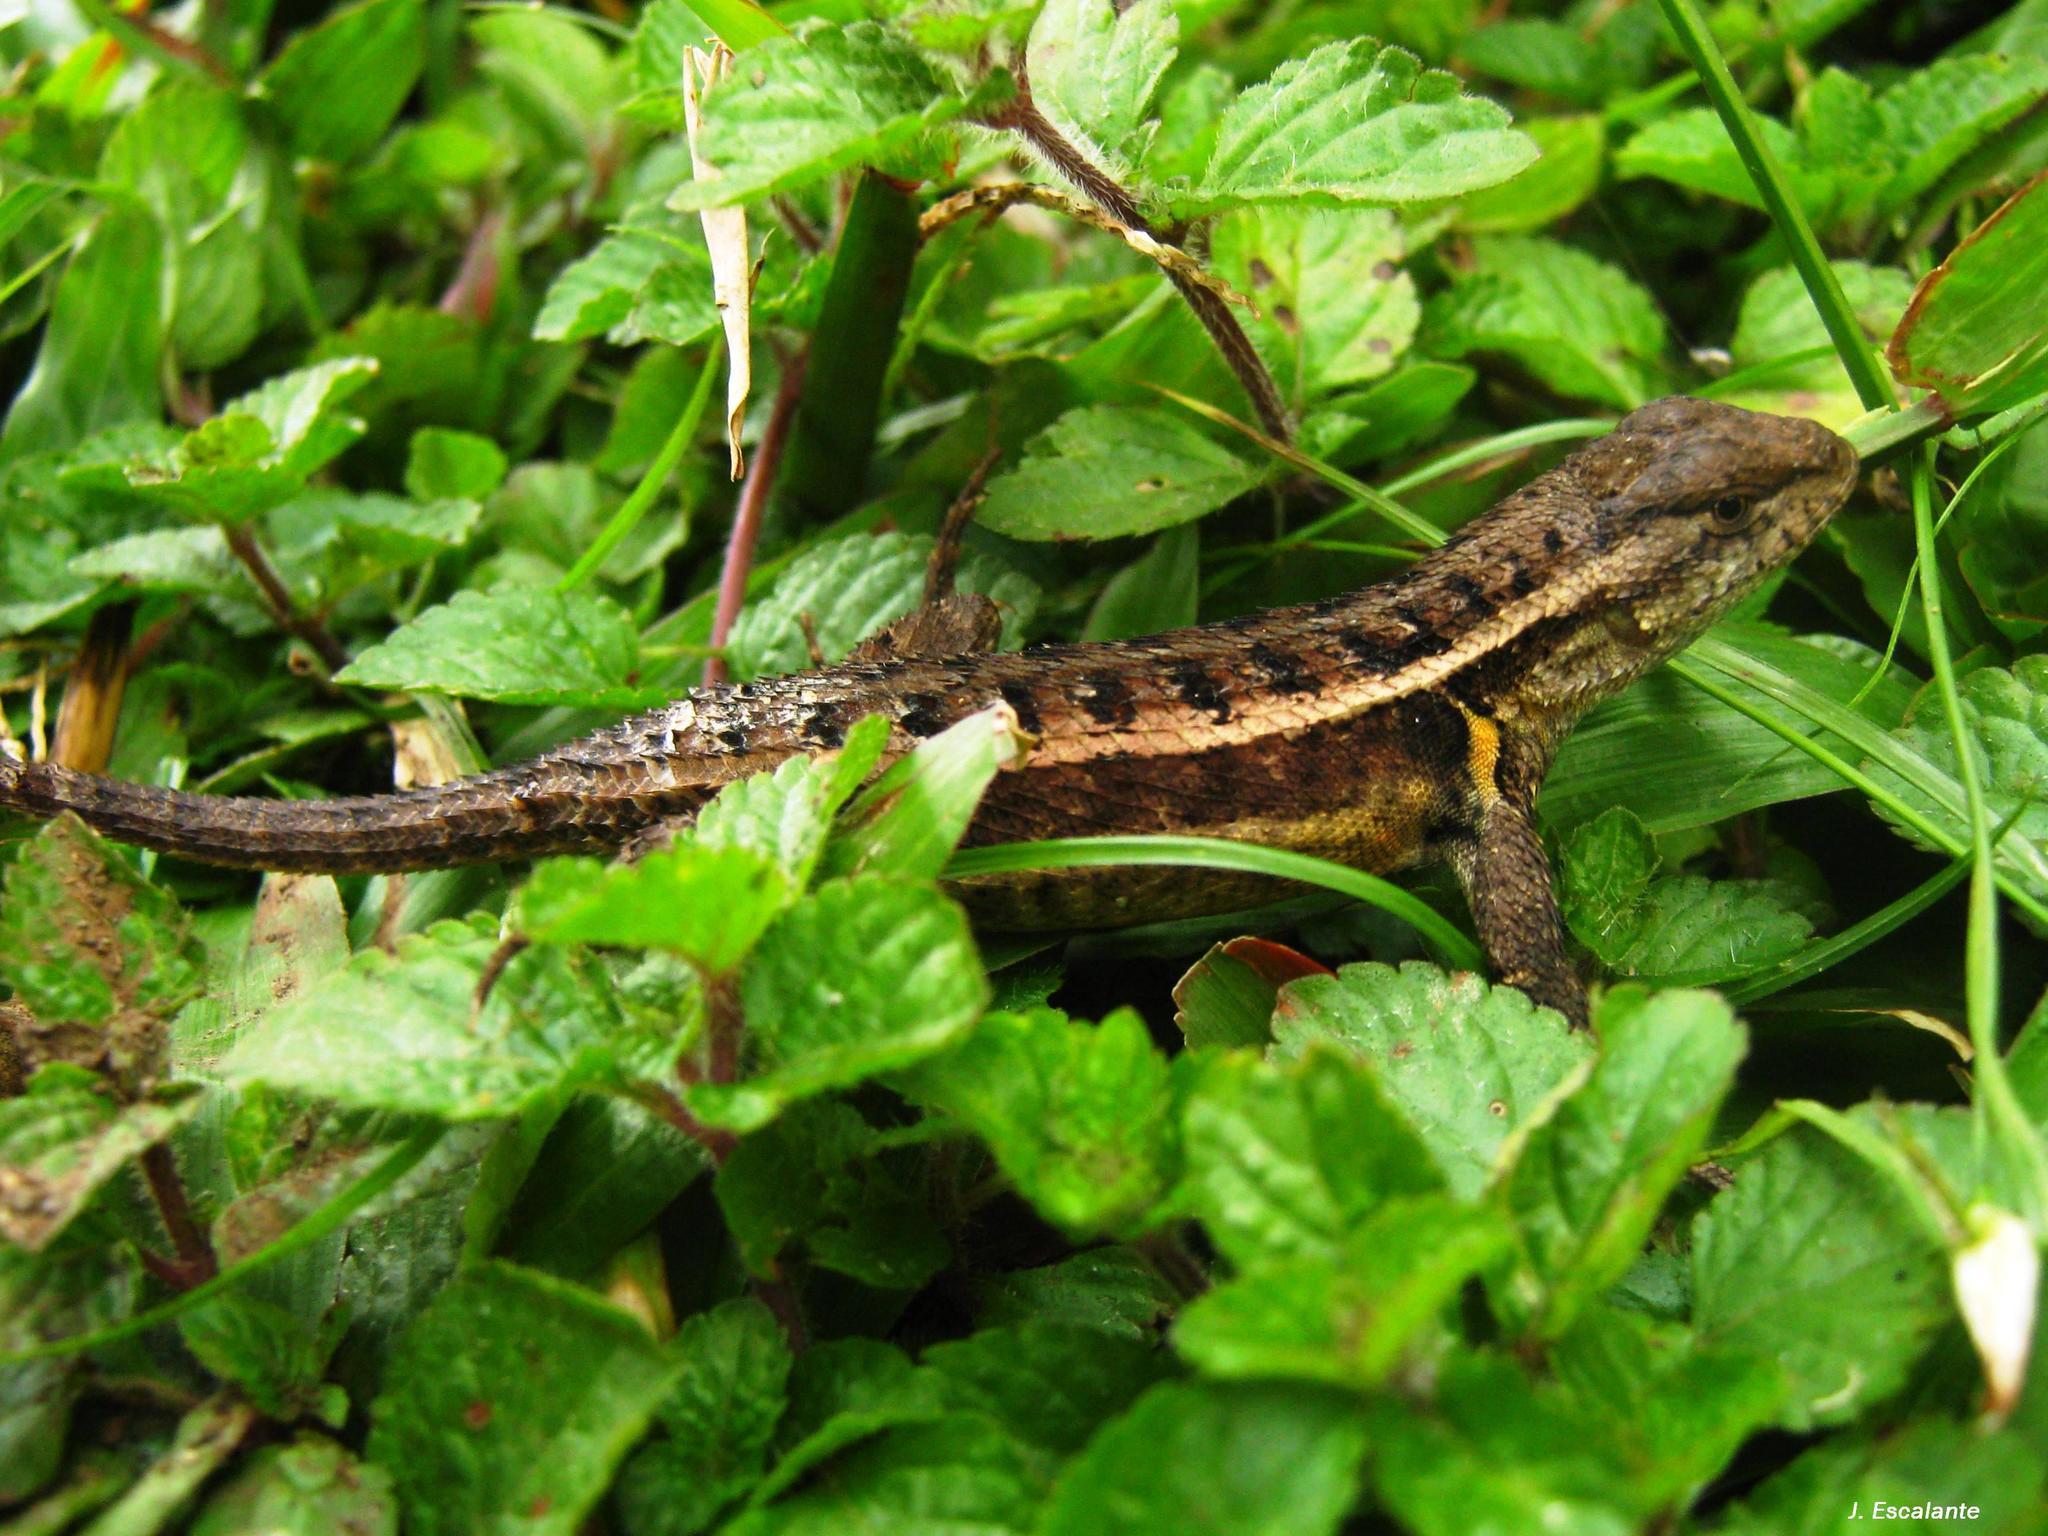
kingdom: Animalia
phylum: Chordata
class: Squamata
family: Phrynosomatidae
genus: Sceloporus
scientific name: Sceloporus variabilis
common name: Rosebelly lizard
